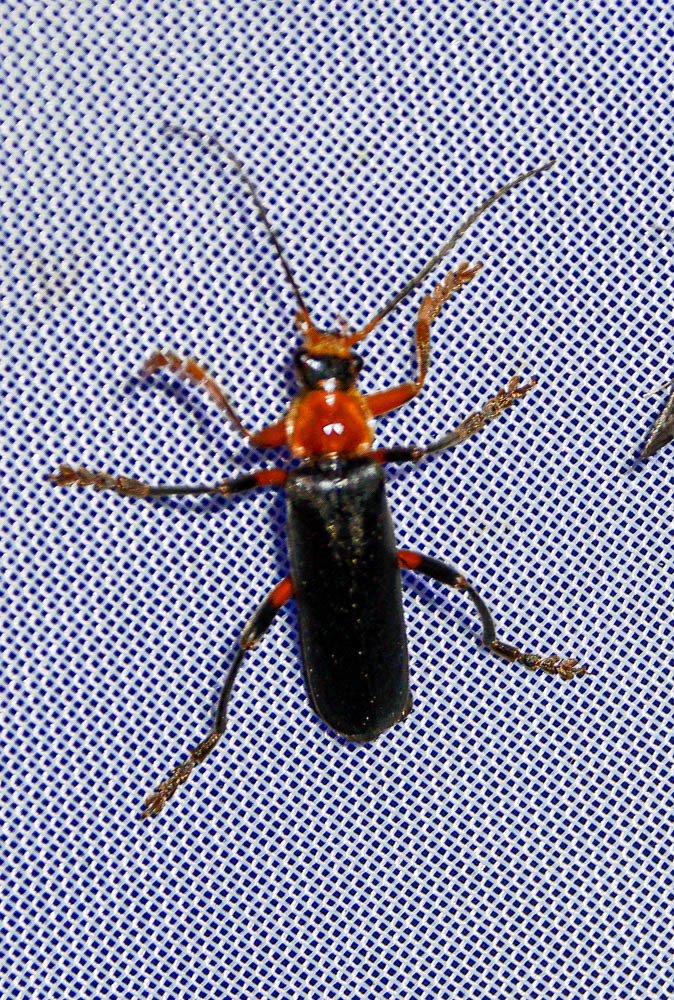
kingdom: Animalia
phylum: Arthropoda
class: Insecta
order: Coleoptera
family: Cantharidae
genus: Cantharis
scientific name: Cantharis livida
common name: Livid soldier beetle
